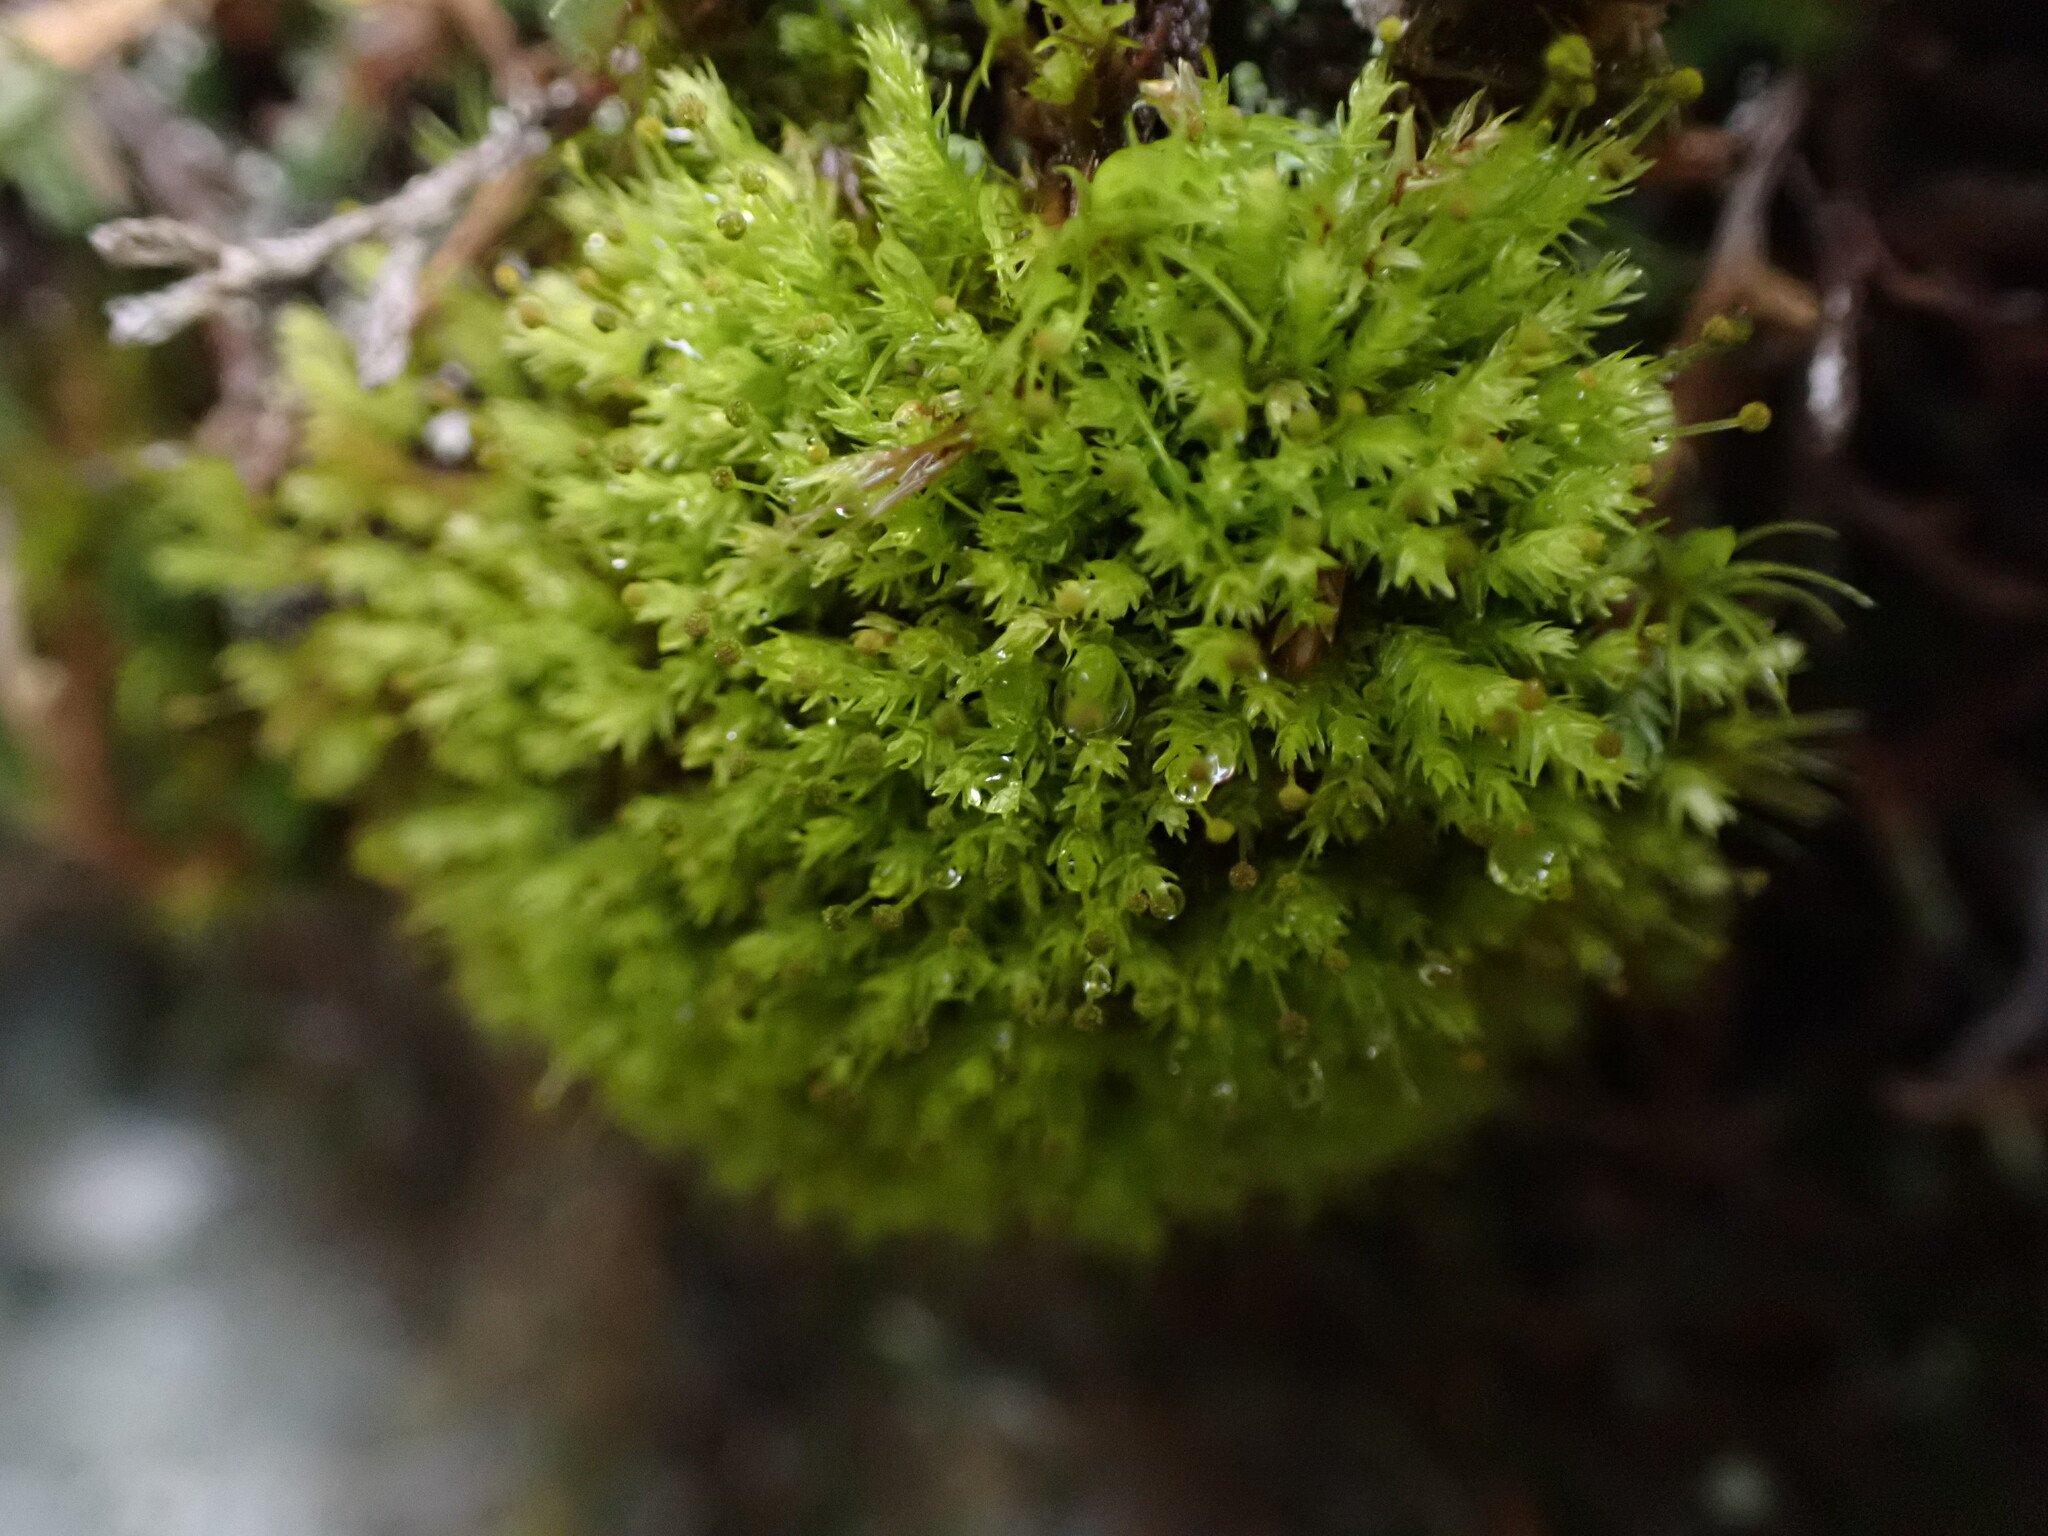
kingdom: Plantae
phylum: Bryophyta
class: Bryopsida
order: Aulacomniales
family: Aulacomniaceae
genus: Aulacomnium
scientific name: Aulacomnium androgynum
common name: Little groove moss
